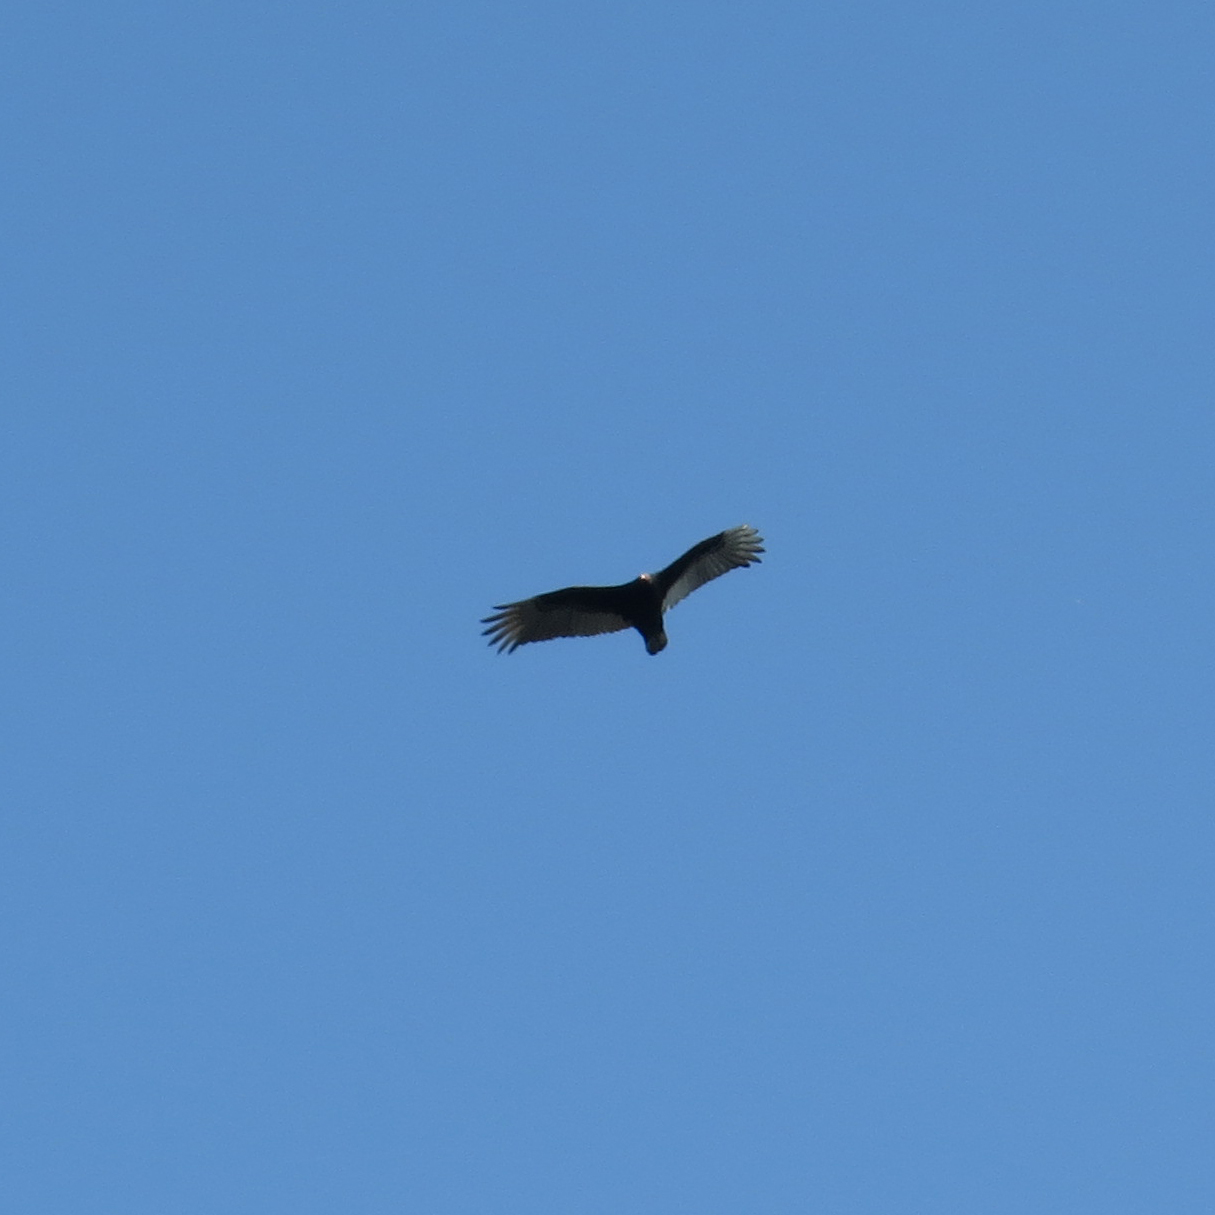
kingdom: Animalia
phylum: Chordata
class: Aves
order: Accipitriformes
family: Cathartidae
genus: Cathartes
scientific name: Cathartes aura
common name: Turkey vulture
